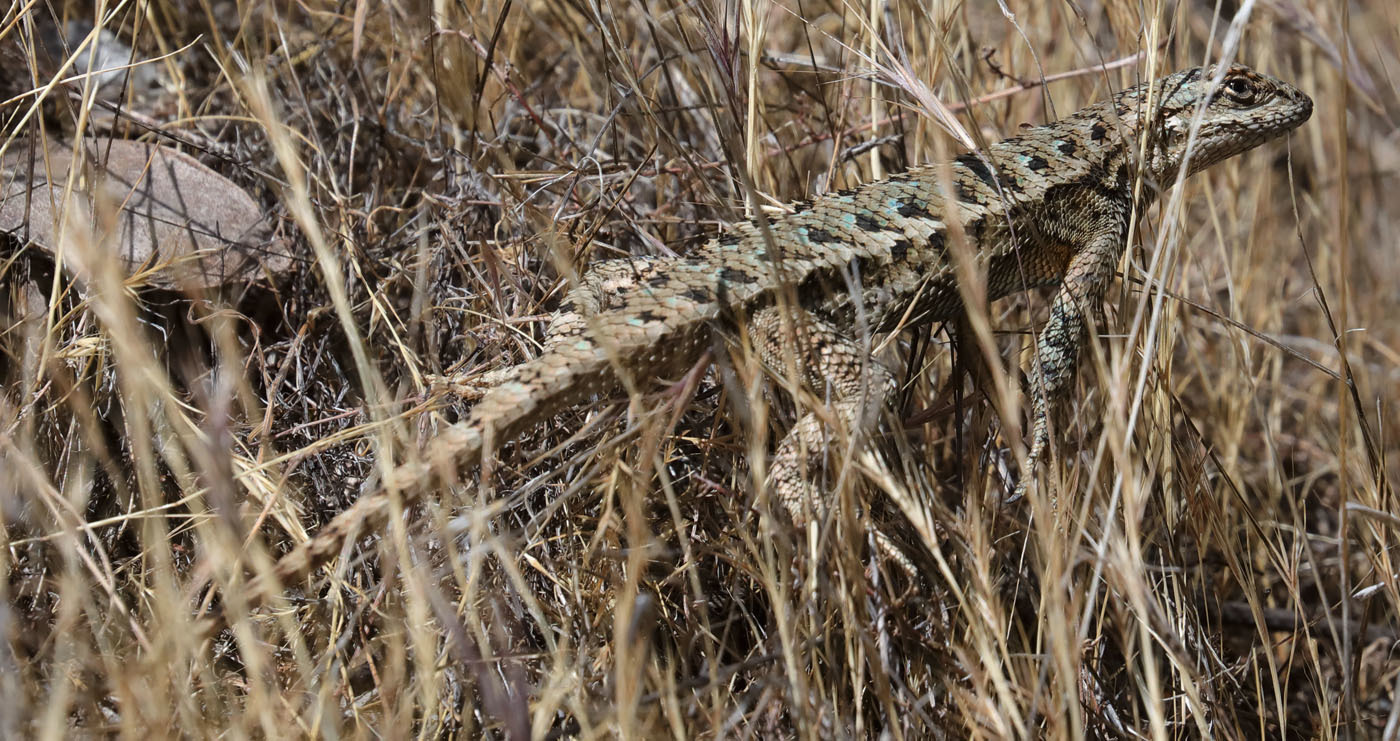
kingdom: Animalia
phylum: Chordata
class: Squamata
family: Phrynosomatidae
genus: Sceloporus
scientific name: Sceloporus occidentalis
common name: Western fence lizard
